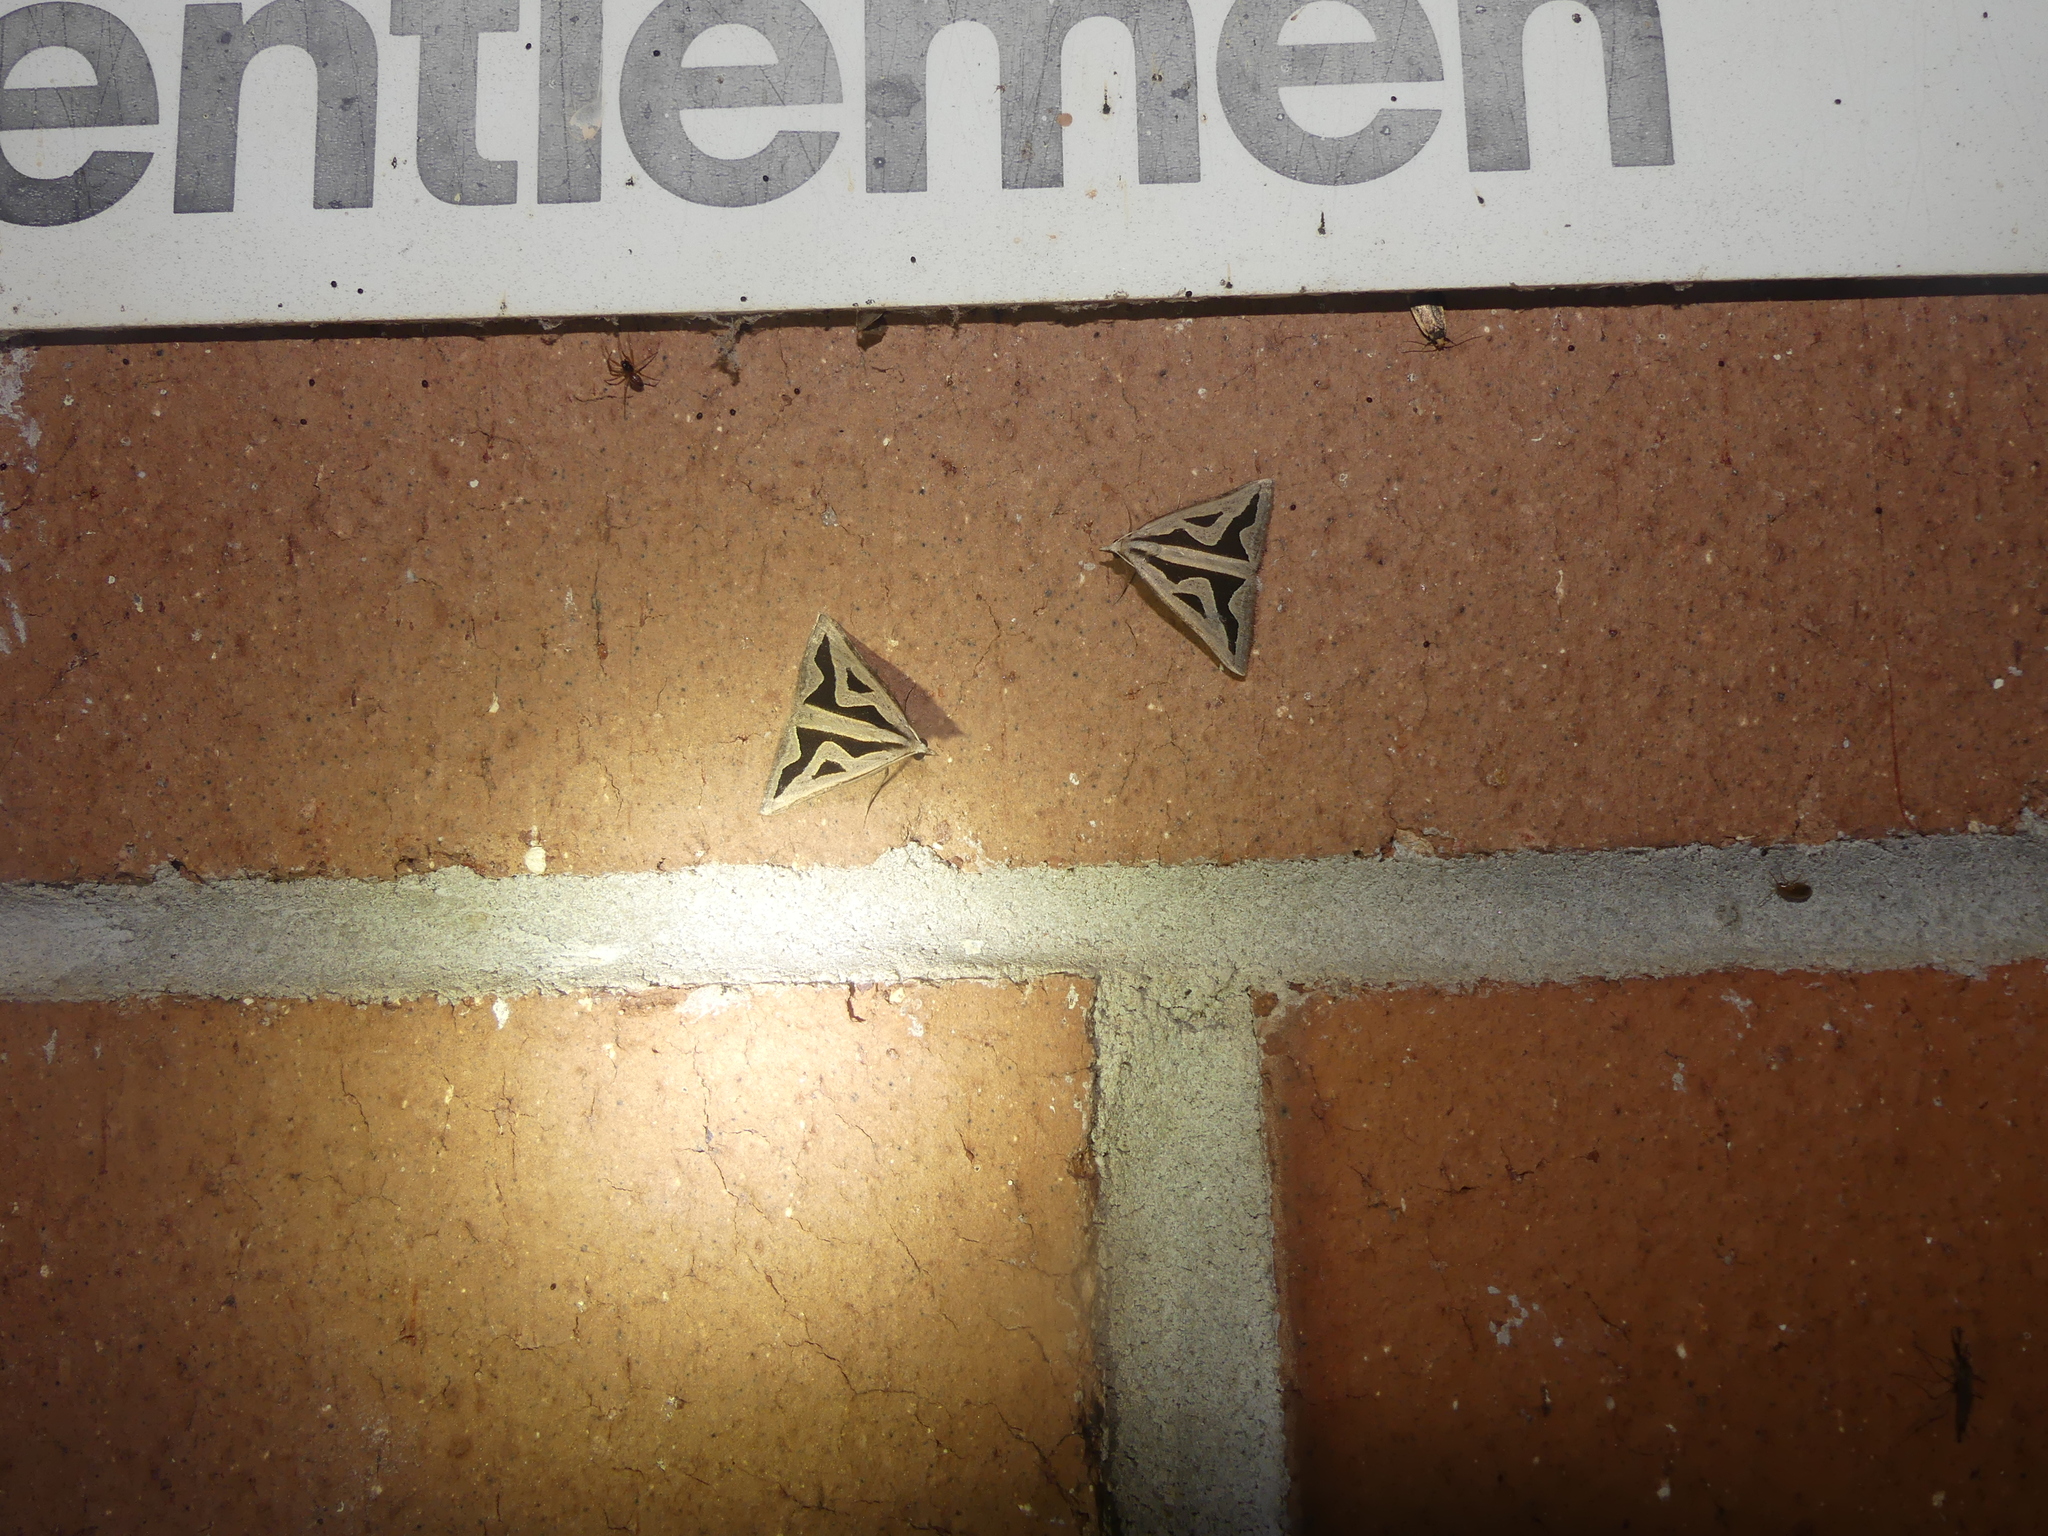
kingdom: Animalia
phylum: Arthropoda
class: Insecta
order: Lepidoptera
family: Geometridae
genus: Dichromodes
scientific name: Dichromodes personalis
